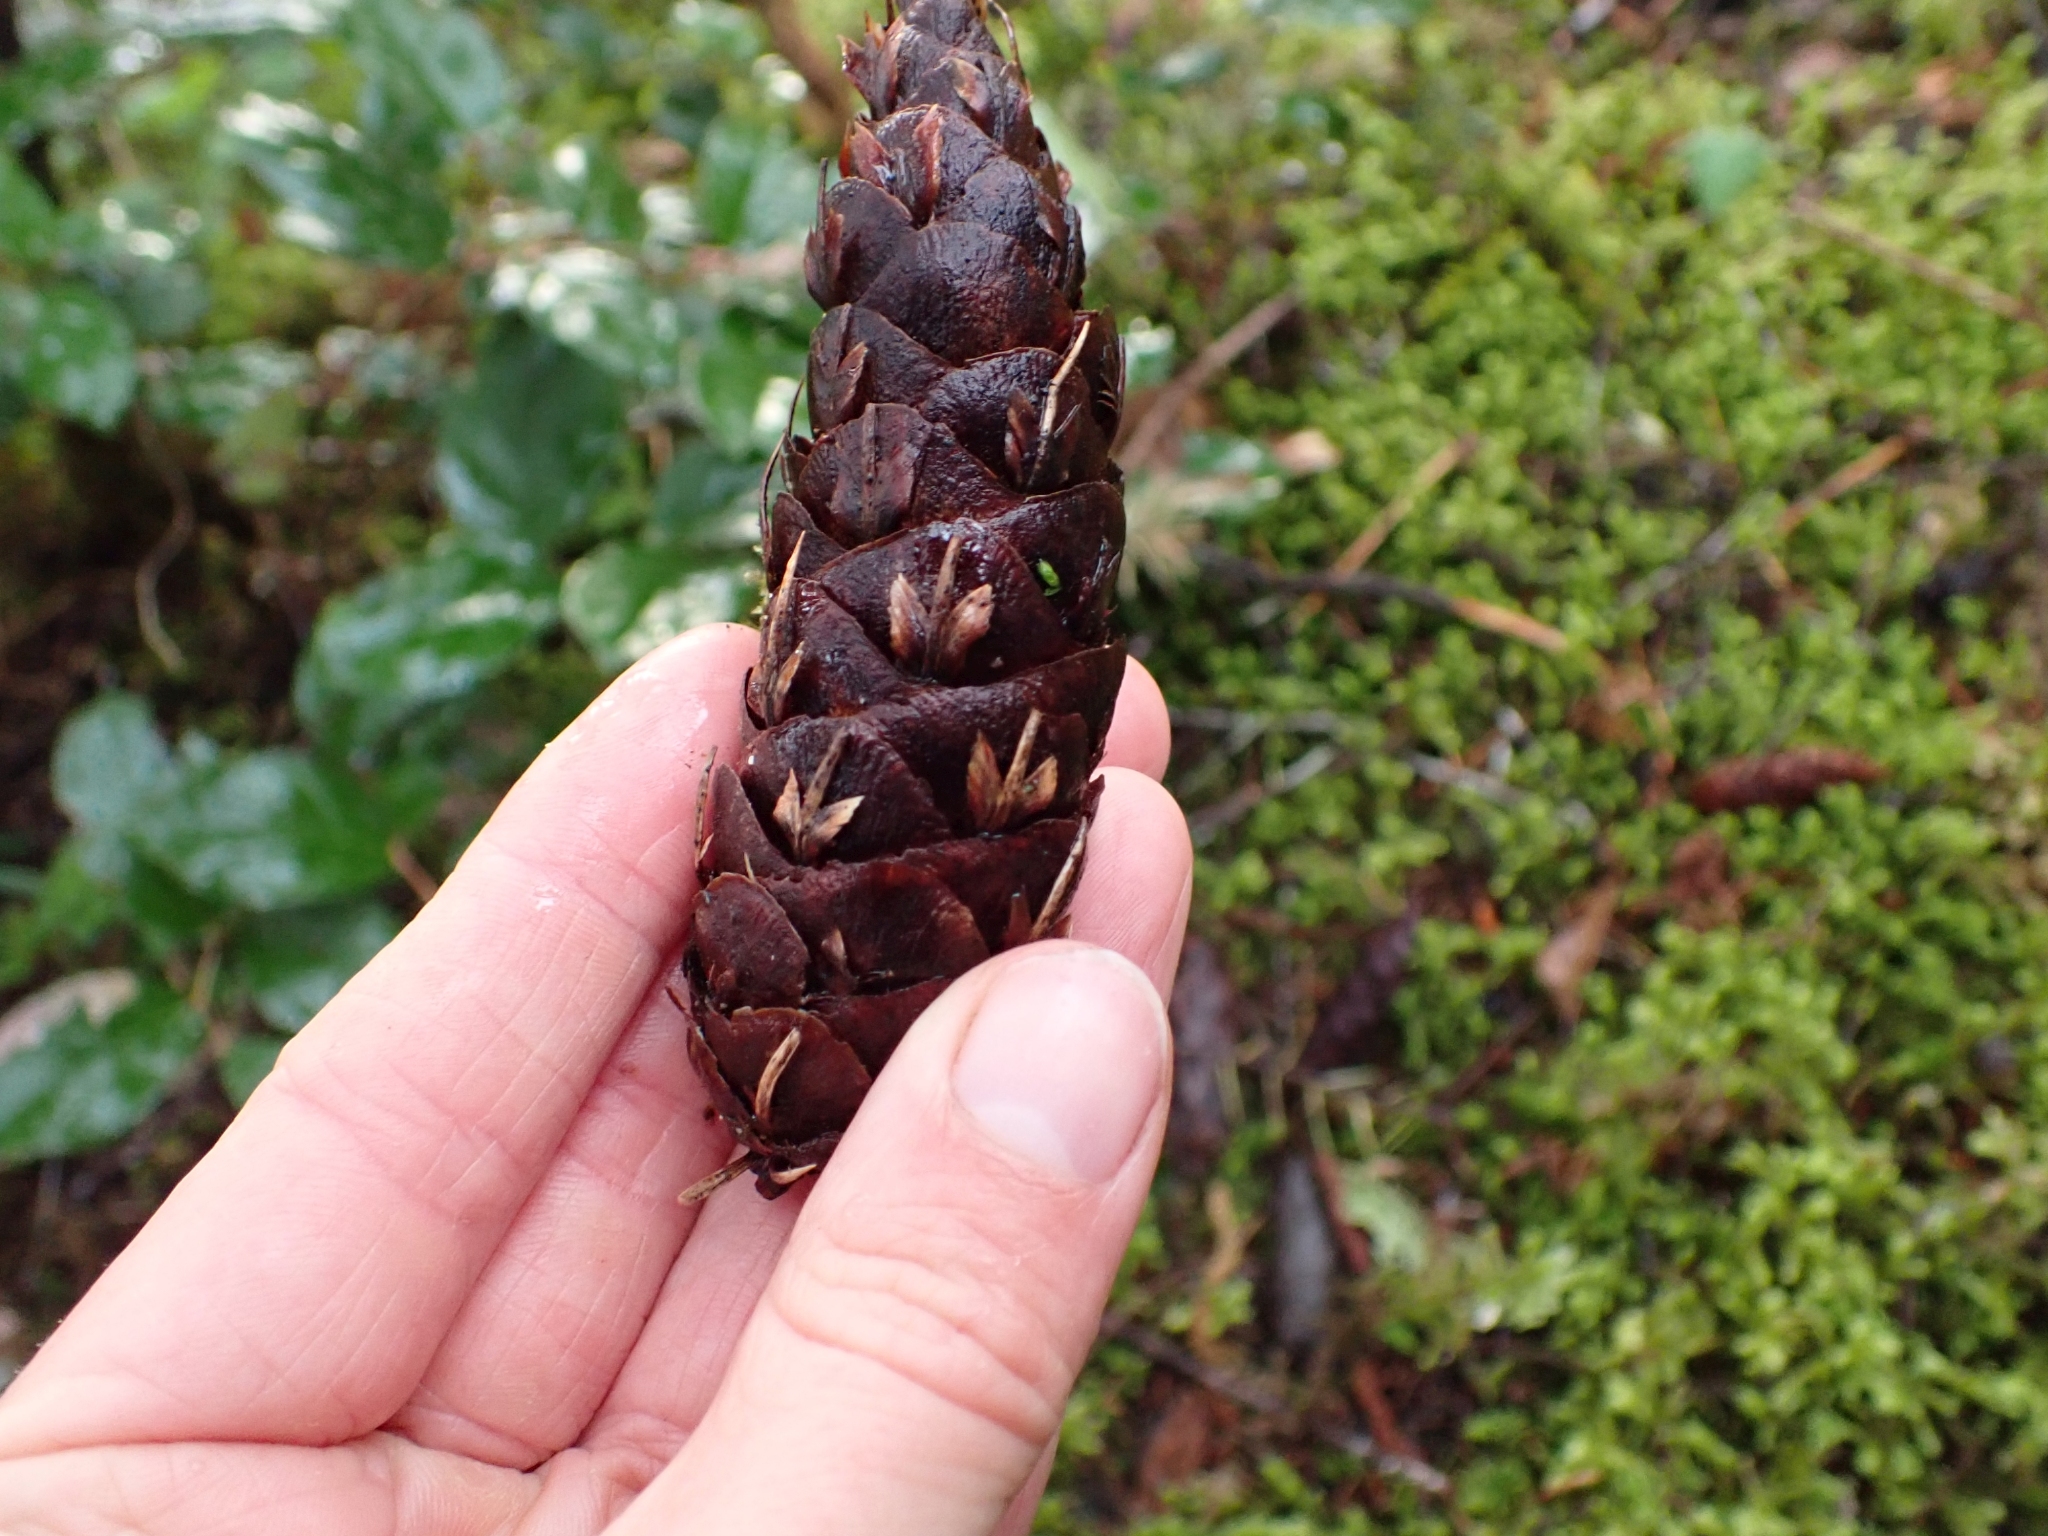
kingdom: Plantae
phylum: Tracheophyta
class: Pinopsida
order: Pinales
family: Pinaceae
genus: Pseudotsuga
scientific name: Pseudotsuga menziesii
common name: Douglas fir
